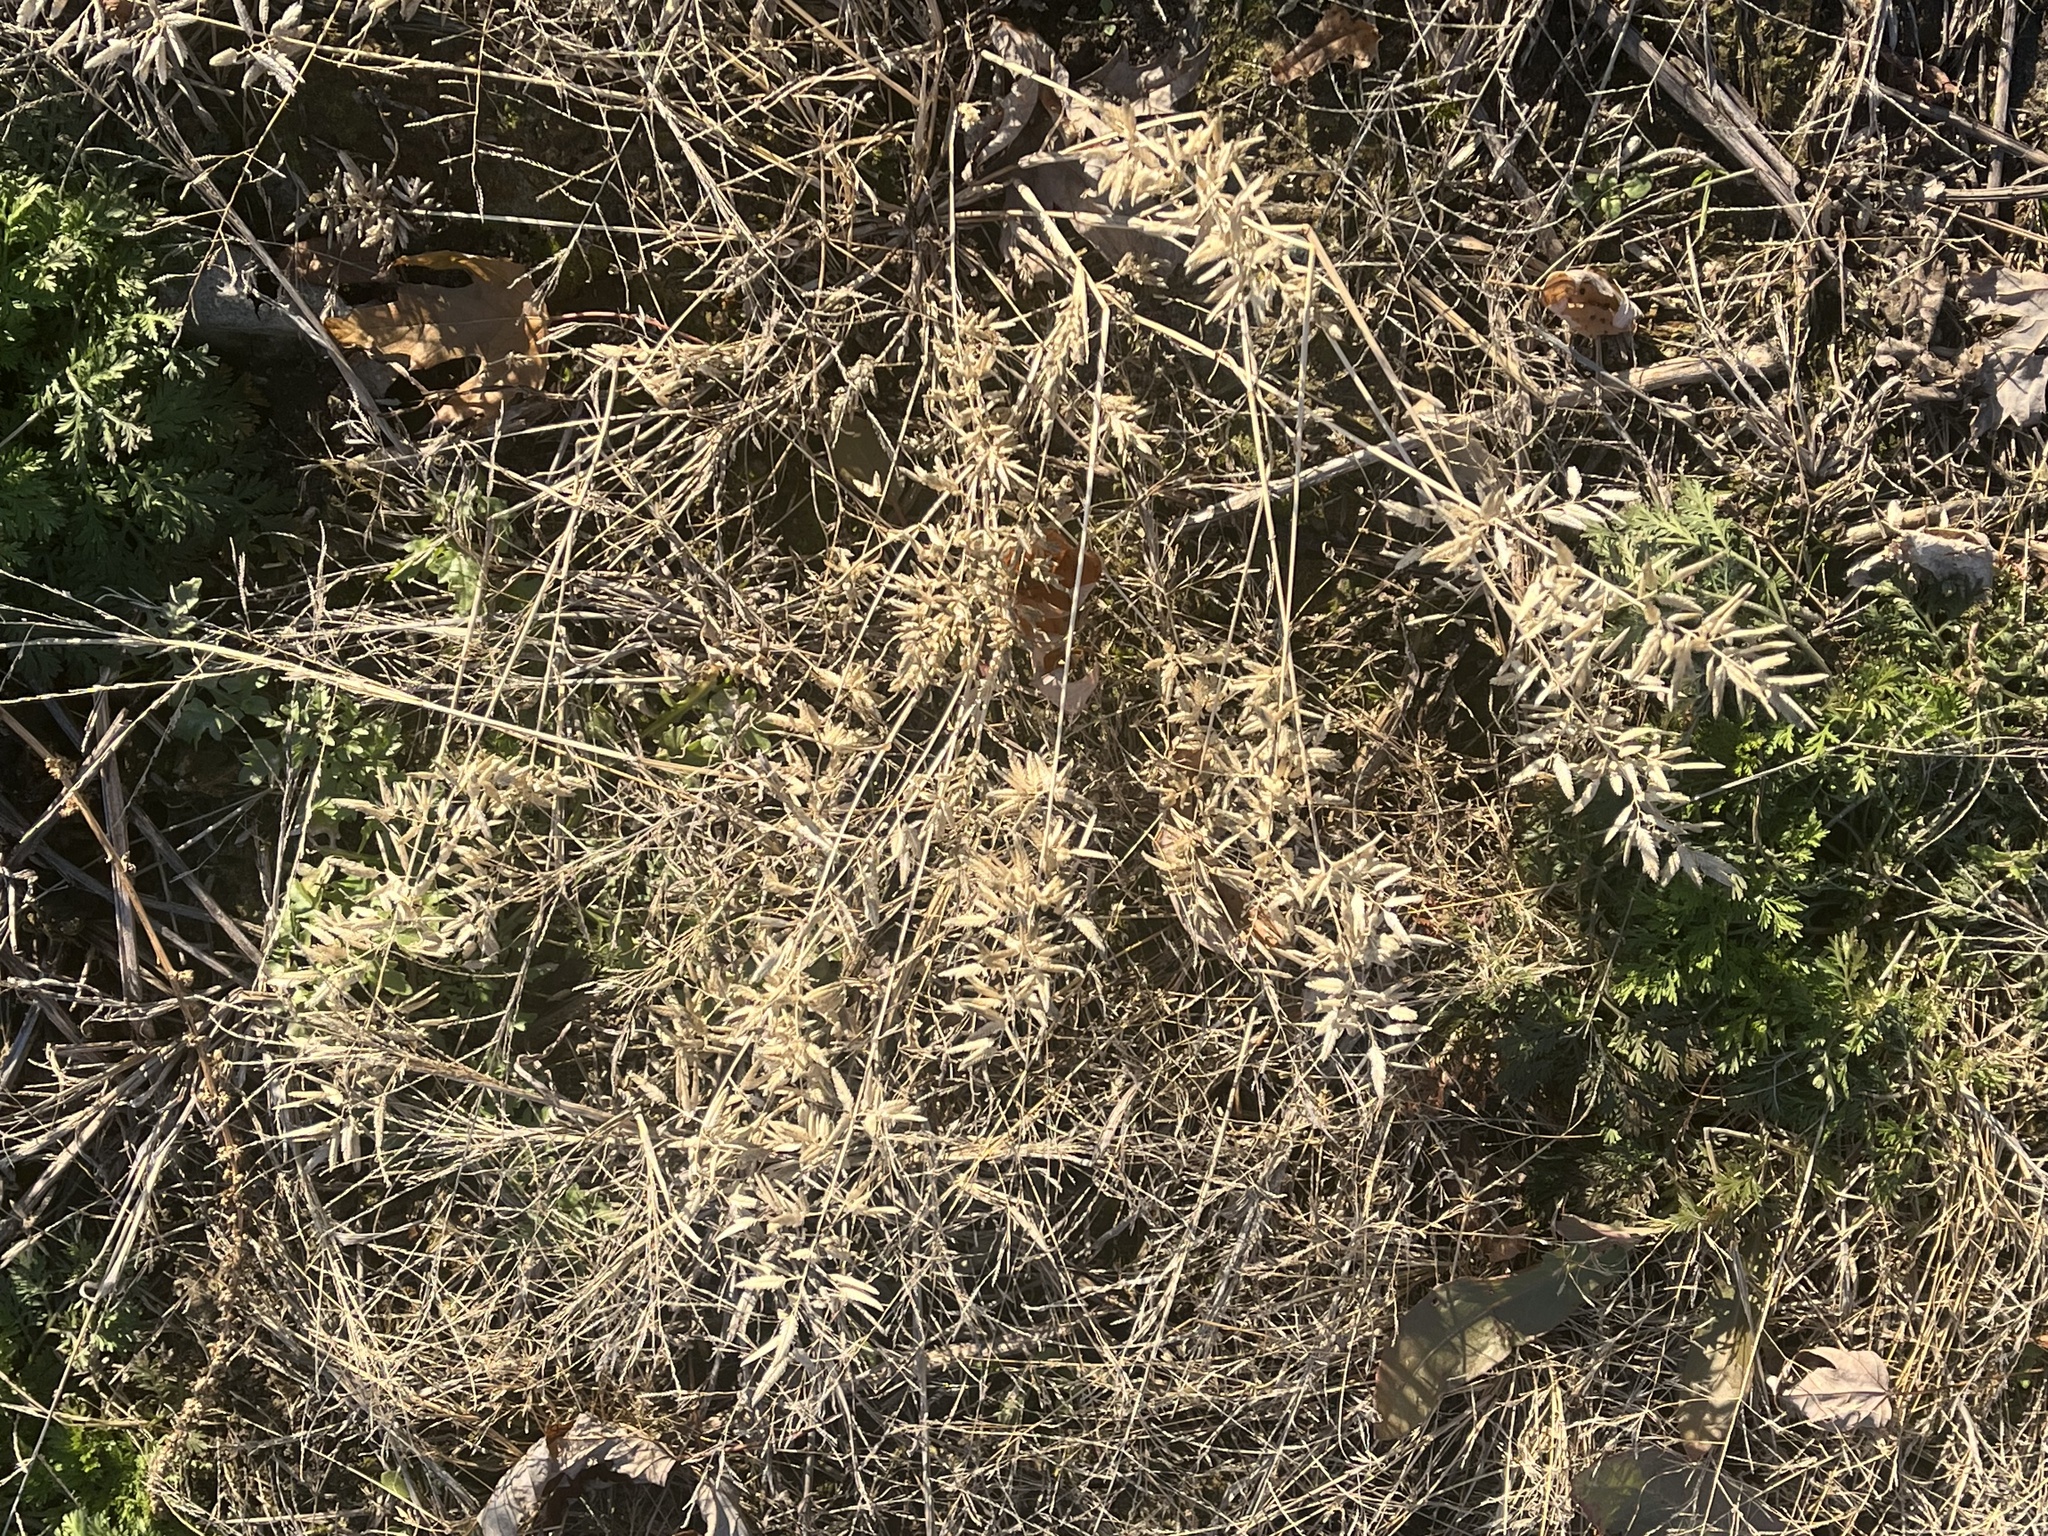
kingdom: Plantae
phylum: Tracheophyta
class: Liliopsida
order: Poales
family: Poaceae
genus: Eragrostis
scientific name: Eragrostis cilianensis
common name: Stinkgrass
